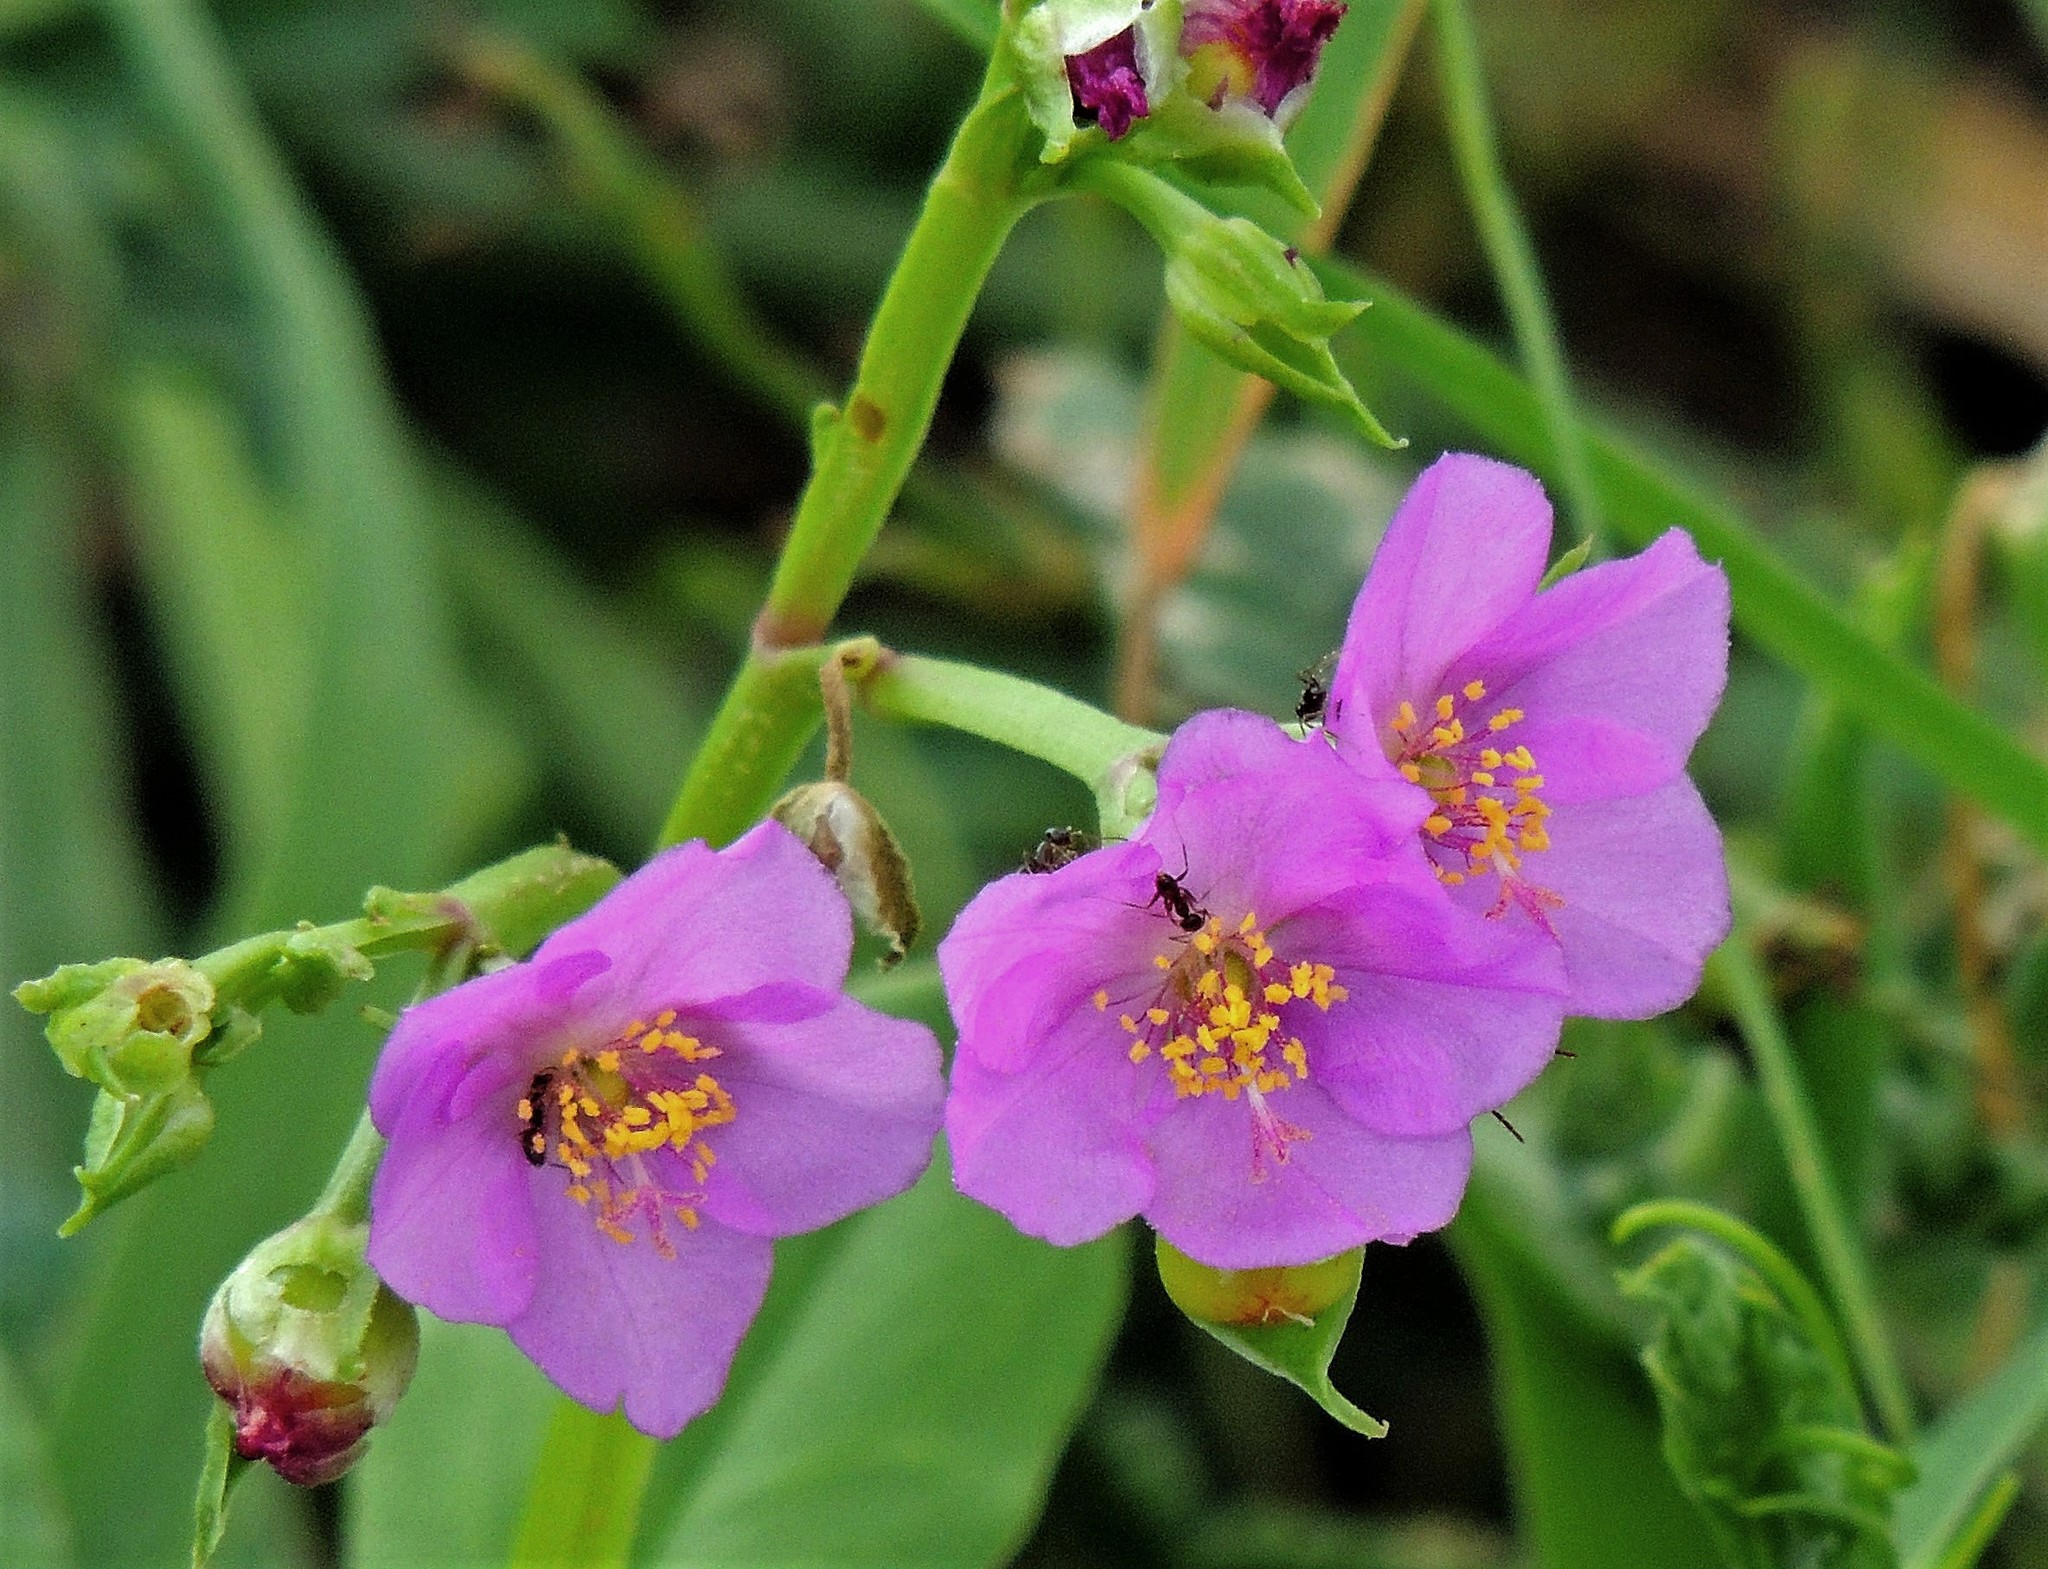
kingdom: Plantae
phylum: Tracheophyta
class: Magnoliopsida
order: Caryophyllales
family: Talinaceae
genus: Talinum
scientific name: Talinum fruticosum
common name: Verdolaga-francesa
